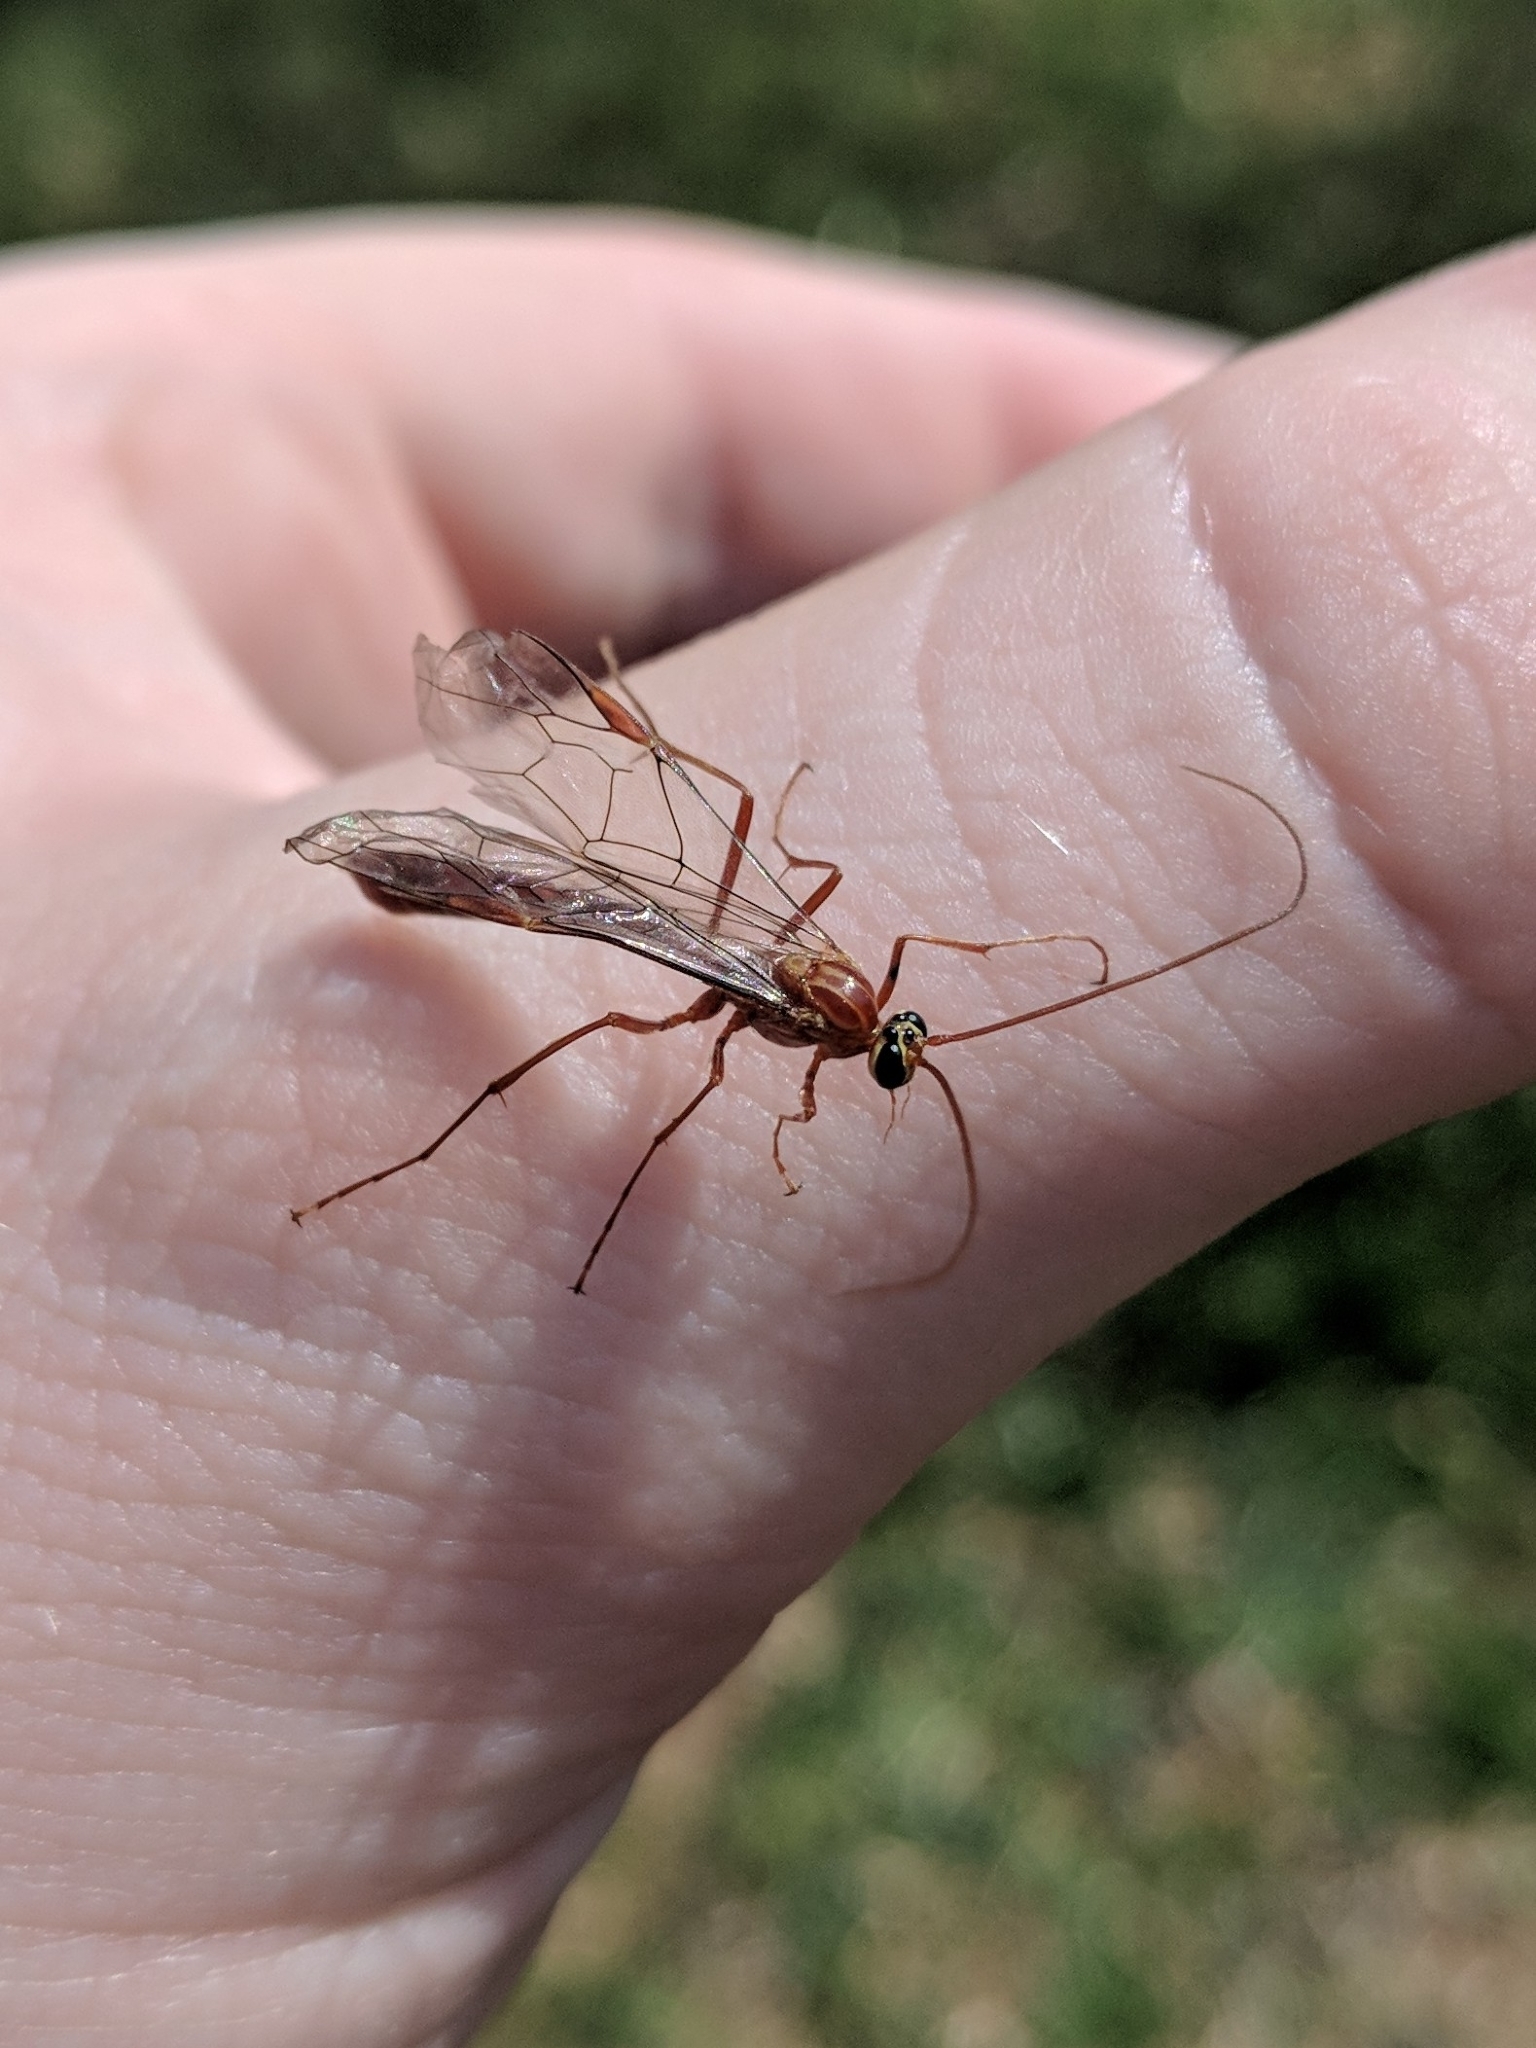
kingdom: Animalia
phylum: Arthropoda
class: Insecta
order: Hymenoptera
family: Ichneumonidae
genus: Ophion
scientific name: Ophion
